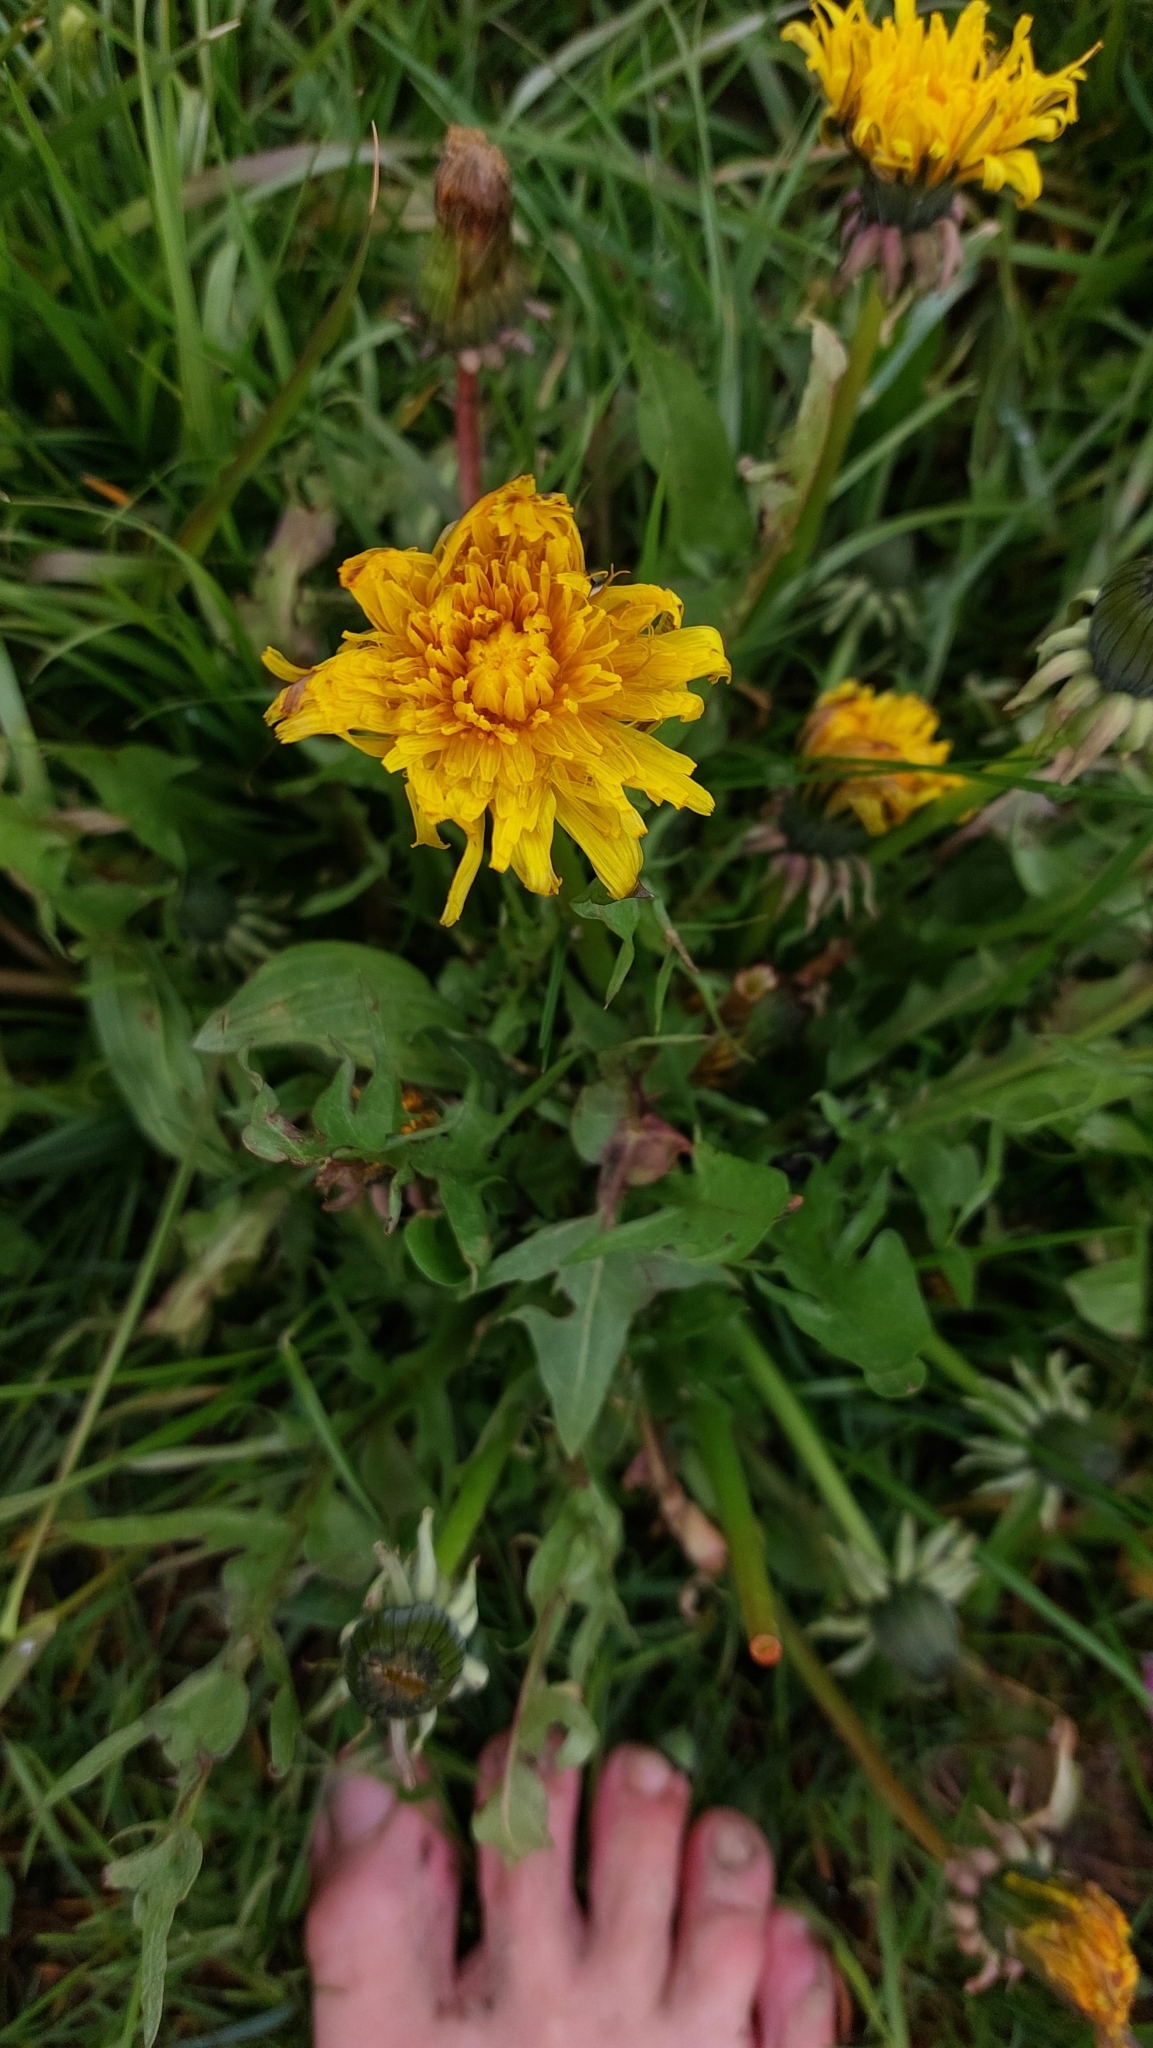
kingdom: Plantae
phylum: Tracheophyta
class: Magnoliopsida
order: Asterales
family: Asteraceae
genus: Taraxacum
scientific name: Taraxacum
